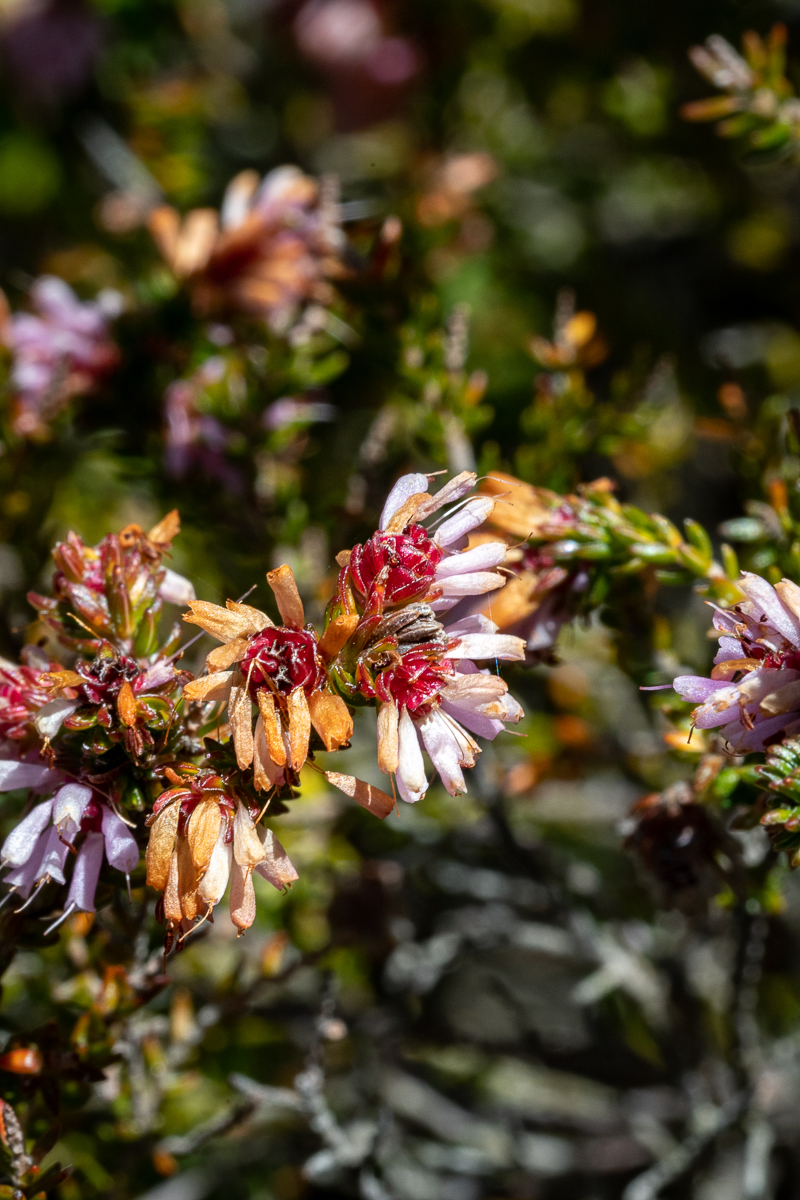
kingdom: Plantae
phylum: Tracheophyta
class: Magnoliopsida
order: Ericales
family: Ericaceae
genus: Erica
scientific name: Erica labialis
